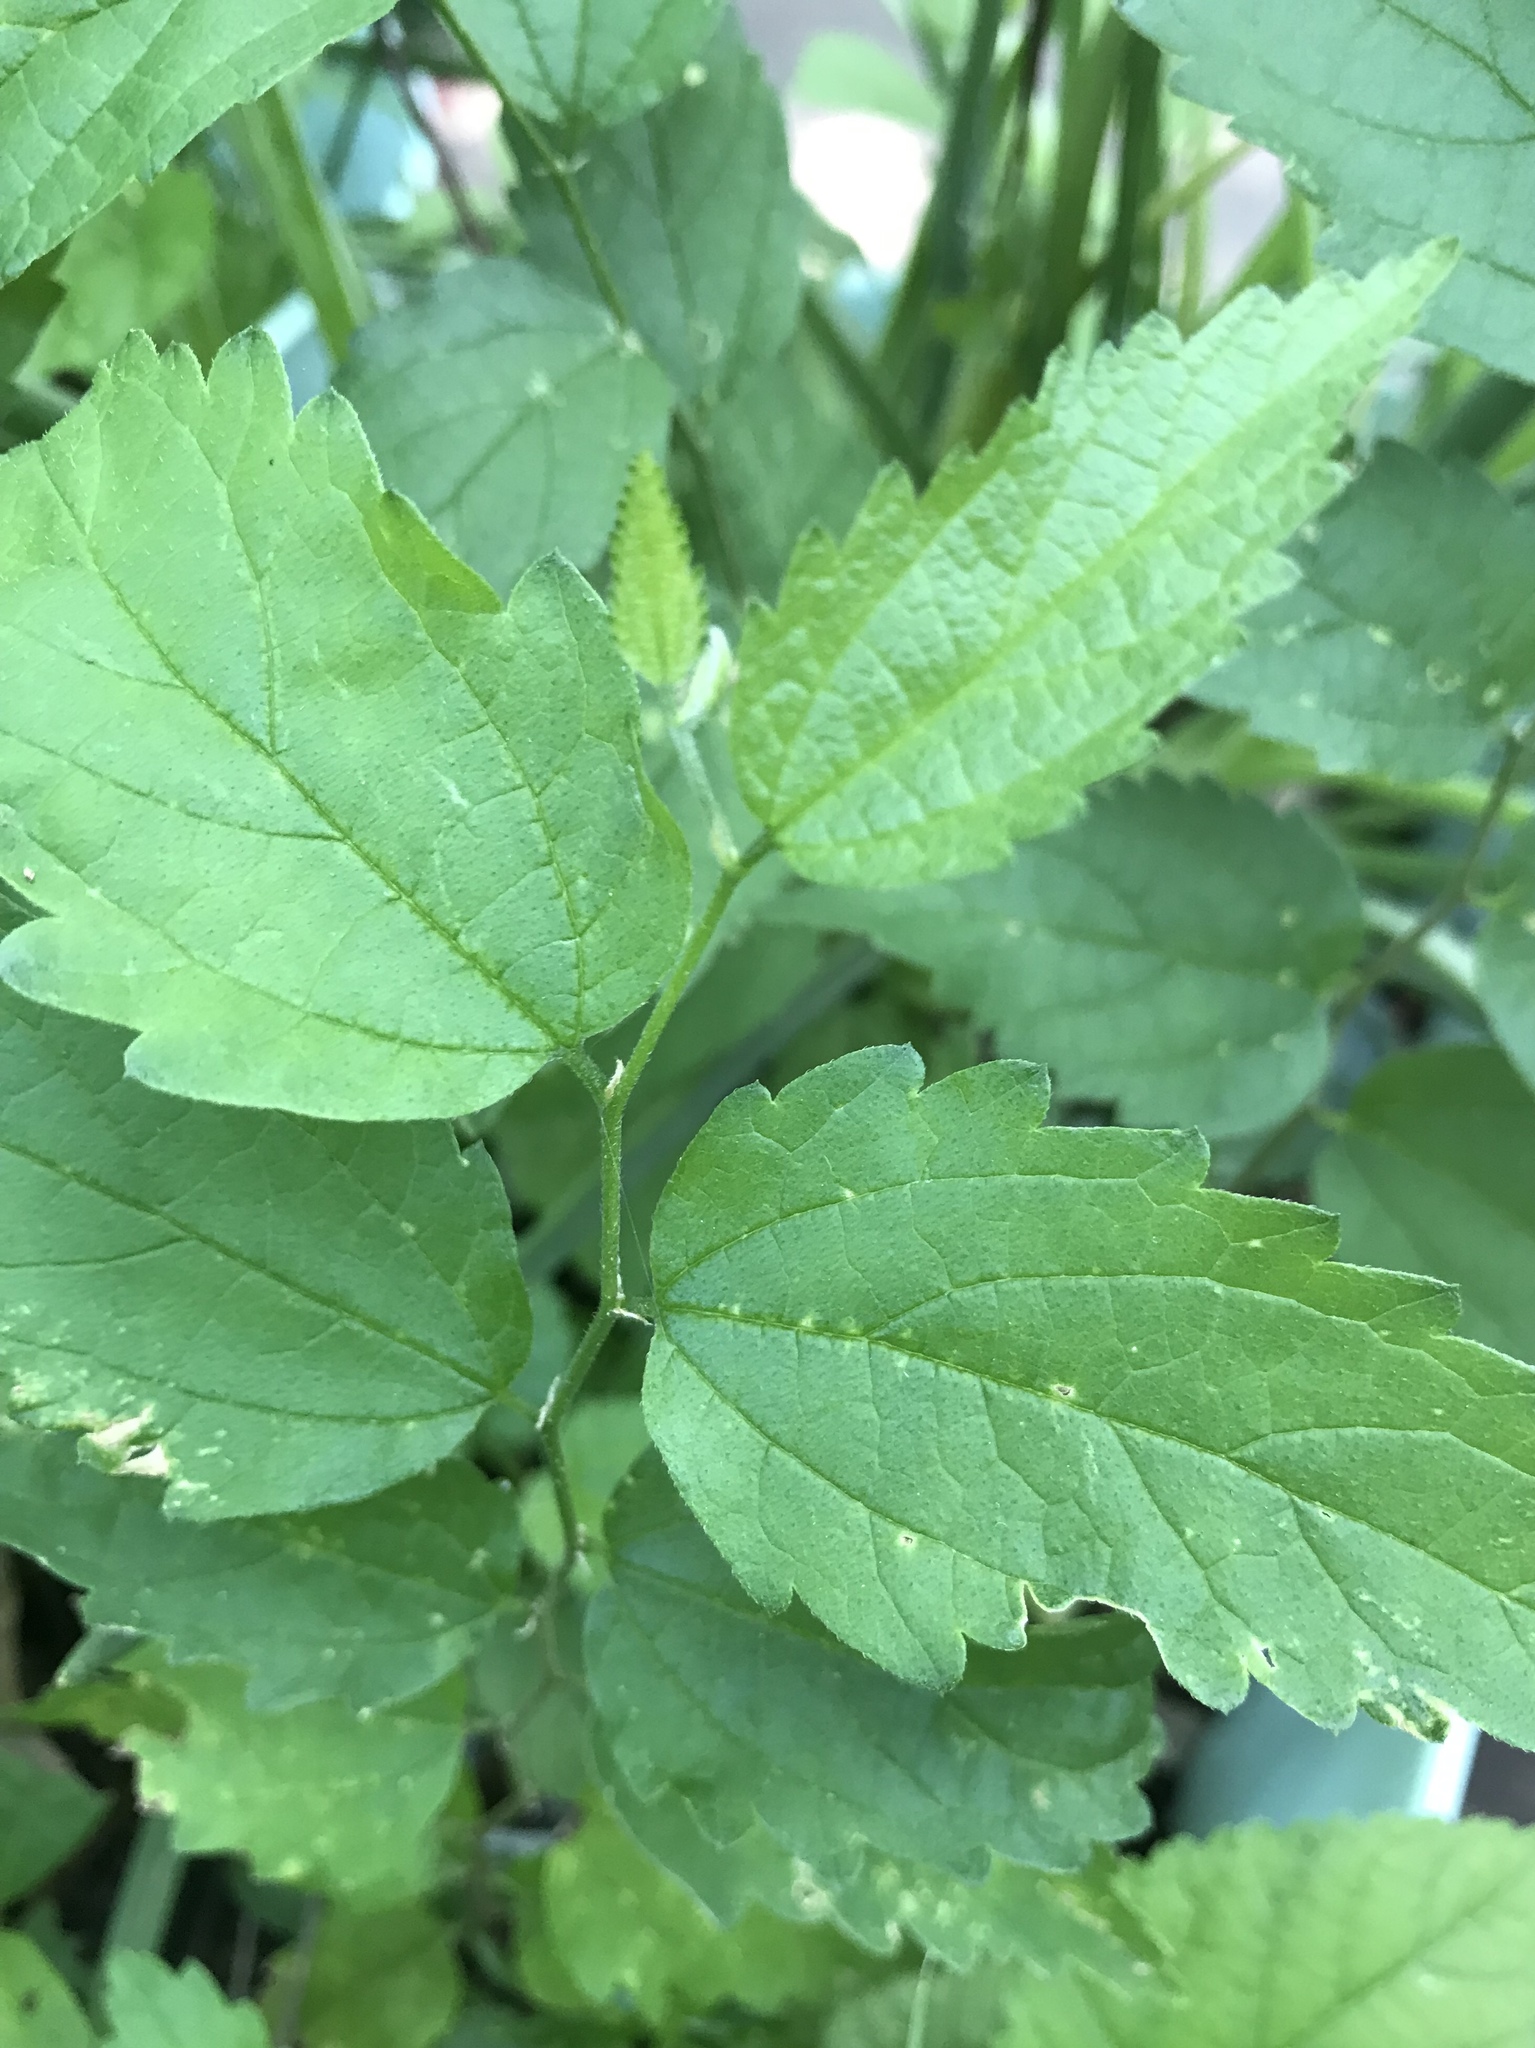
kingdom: Plantae
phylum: Tracheophyta
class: Magnoliopsida
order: Rosales
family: Cannabaceae
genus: Celtis
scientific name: Celtis laevigata
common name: Sugarberry
